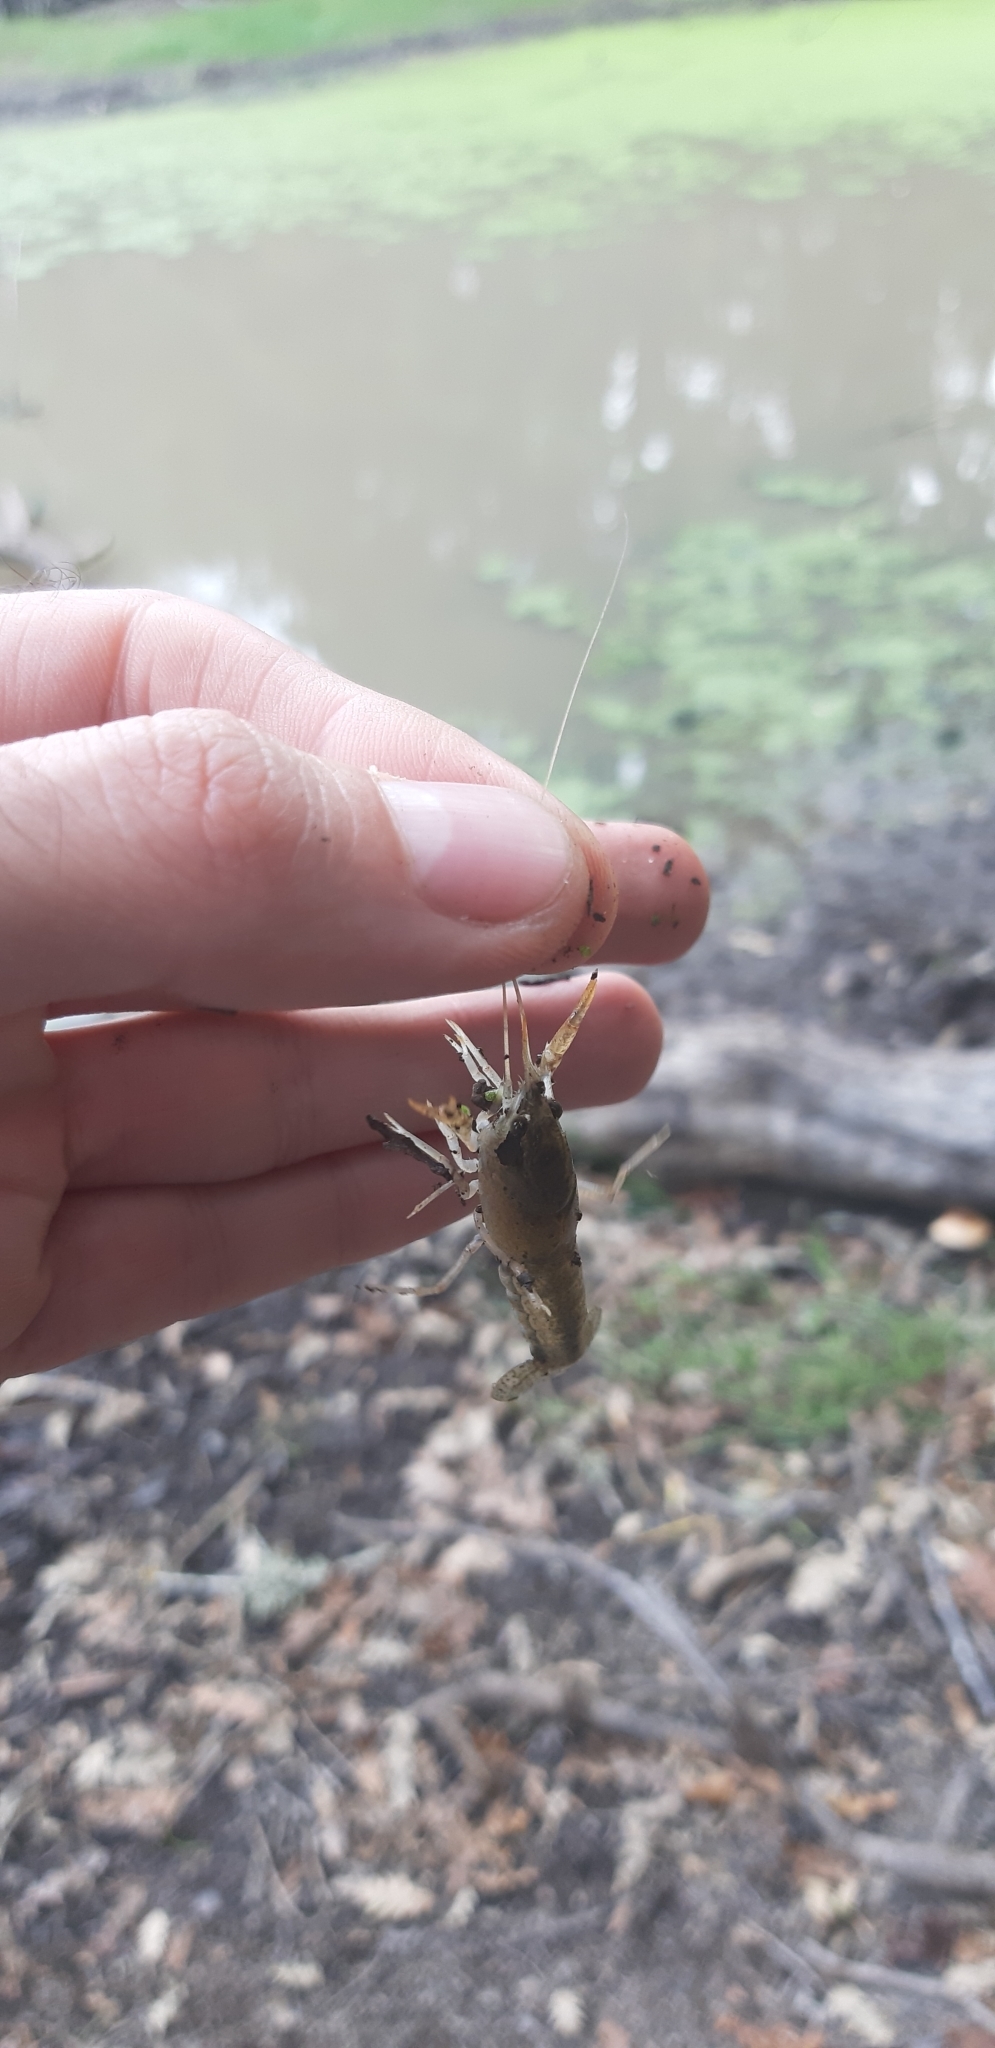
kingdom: Animalia
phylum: Arthropoda
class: Malacostraca
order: Decapoda
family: Cambaridae
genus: Procambarus
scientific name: Procambarus clarkii
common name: Red swamp crayfish
